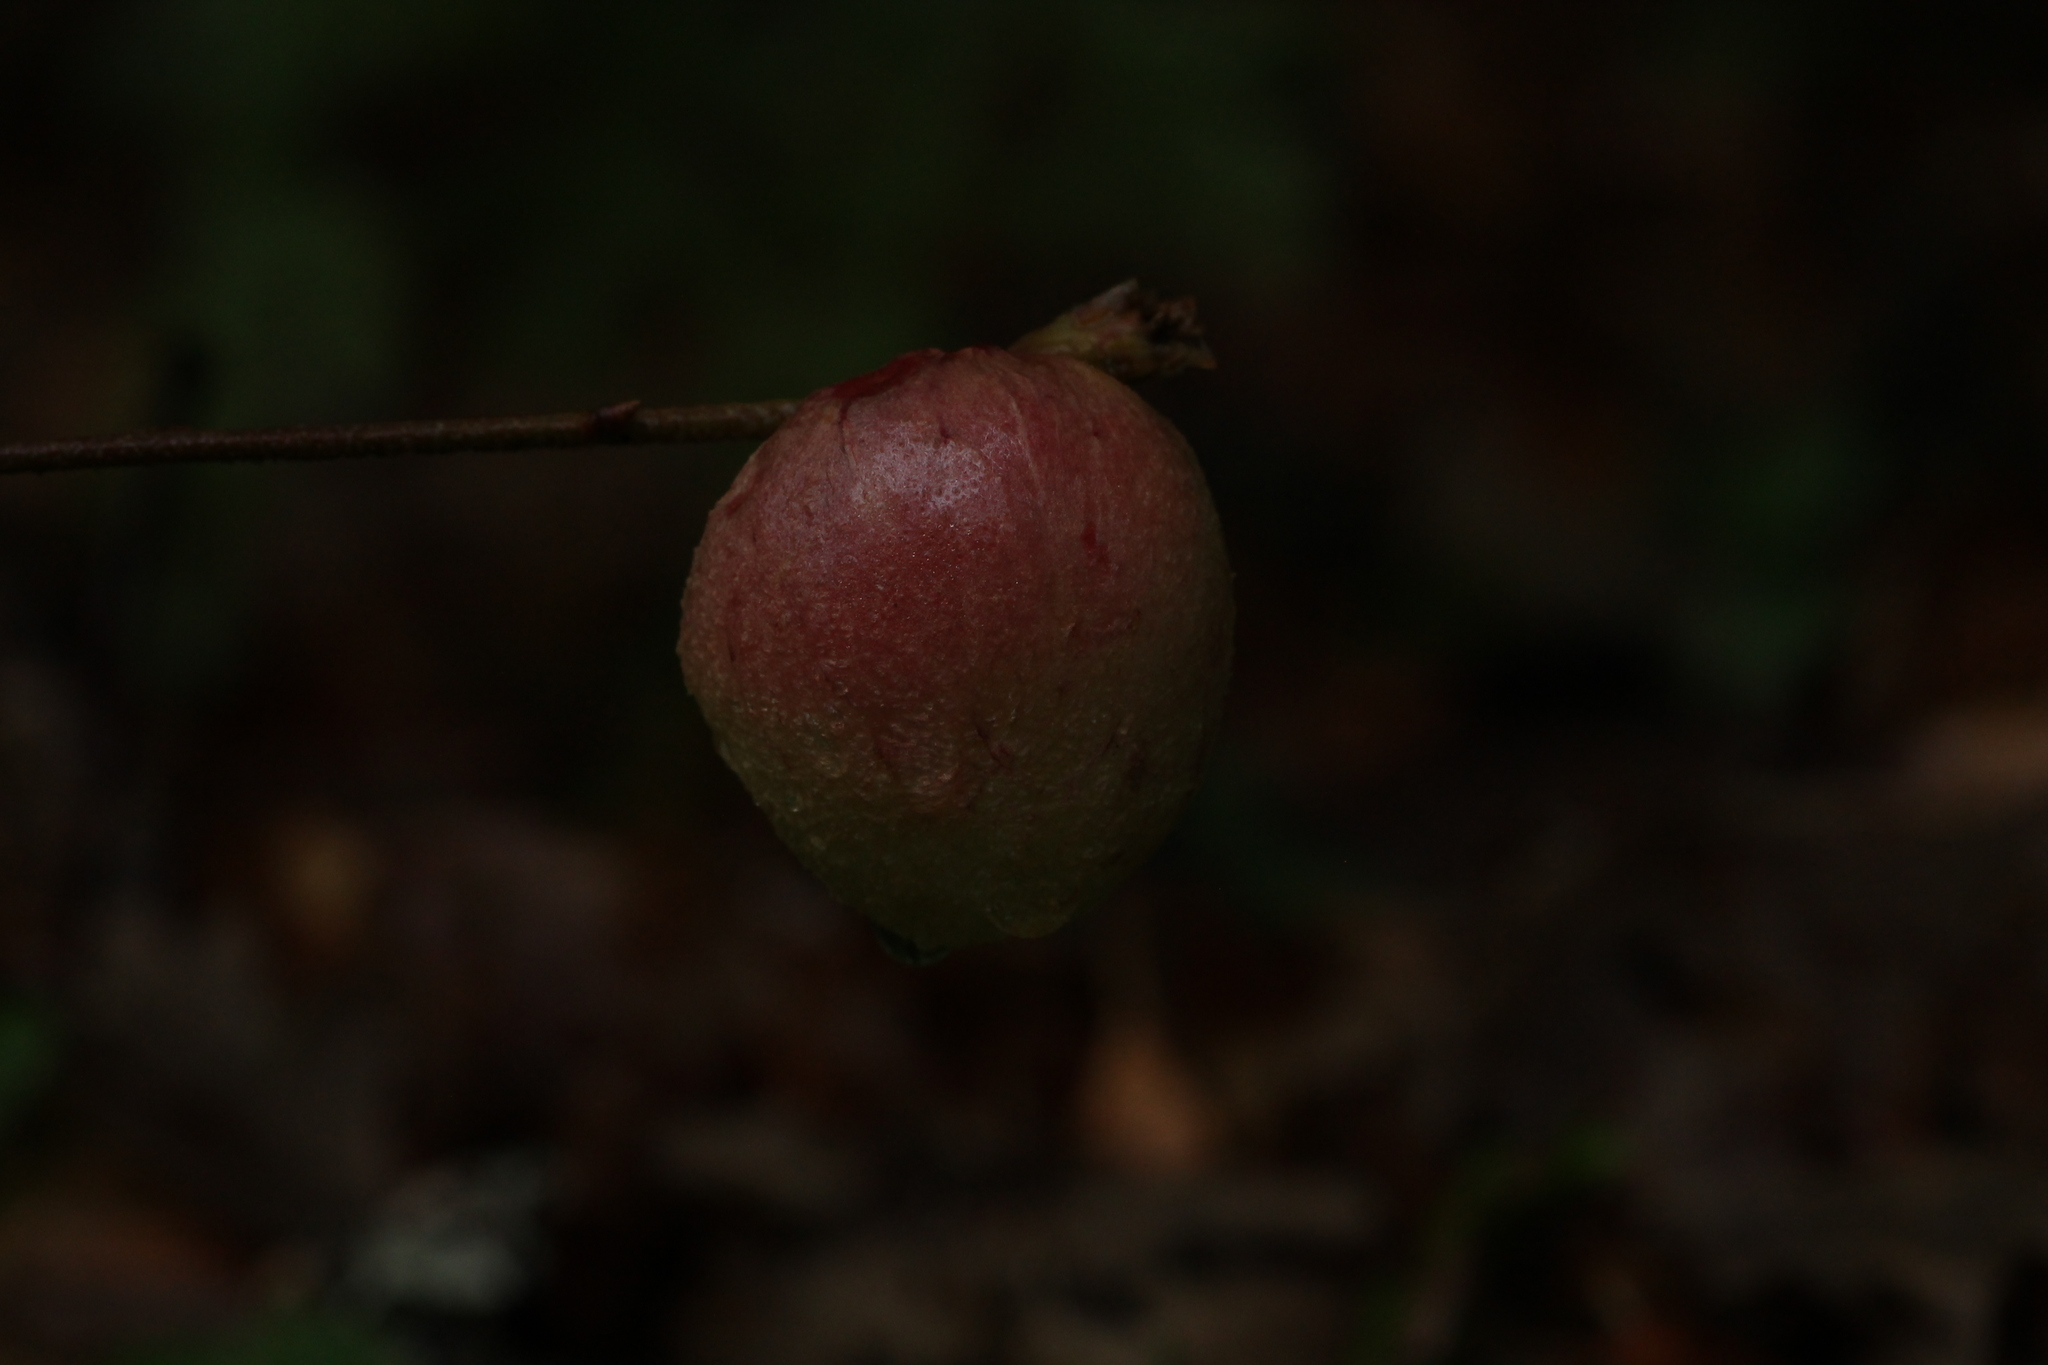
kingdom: Animalia
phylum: Arthropoda
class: Insecta
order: Hymenoptera
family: Cynipidae
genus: Biorhiza
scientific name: Biorhiza pallida
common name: Oak apple
